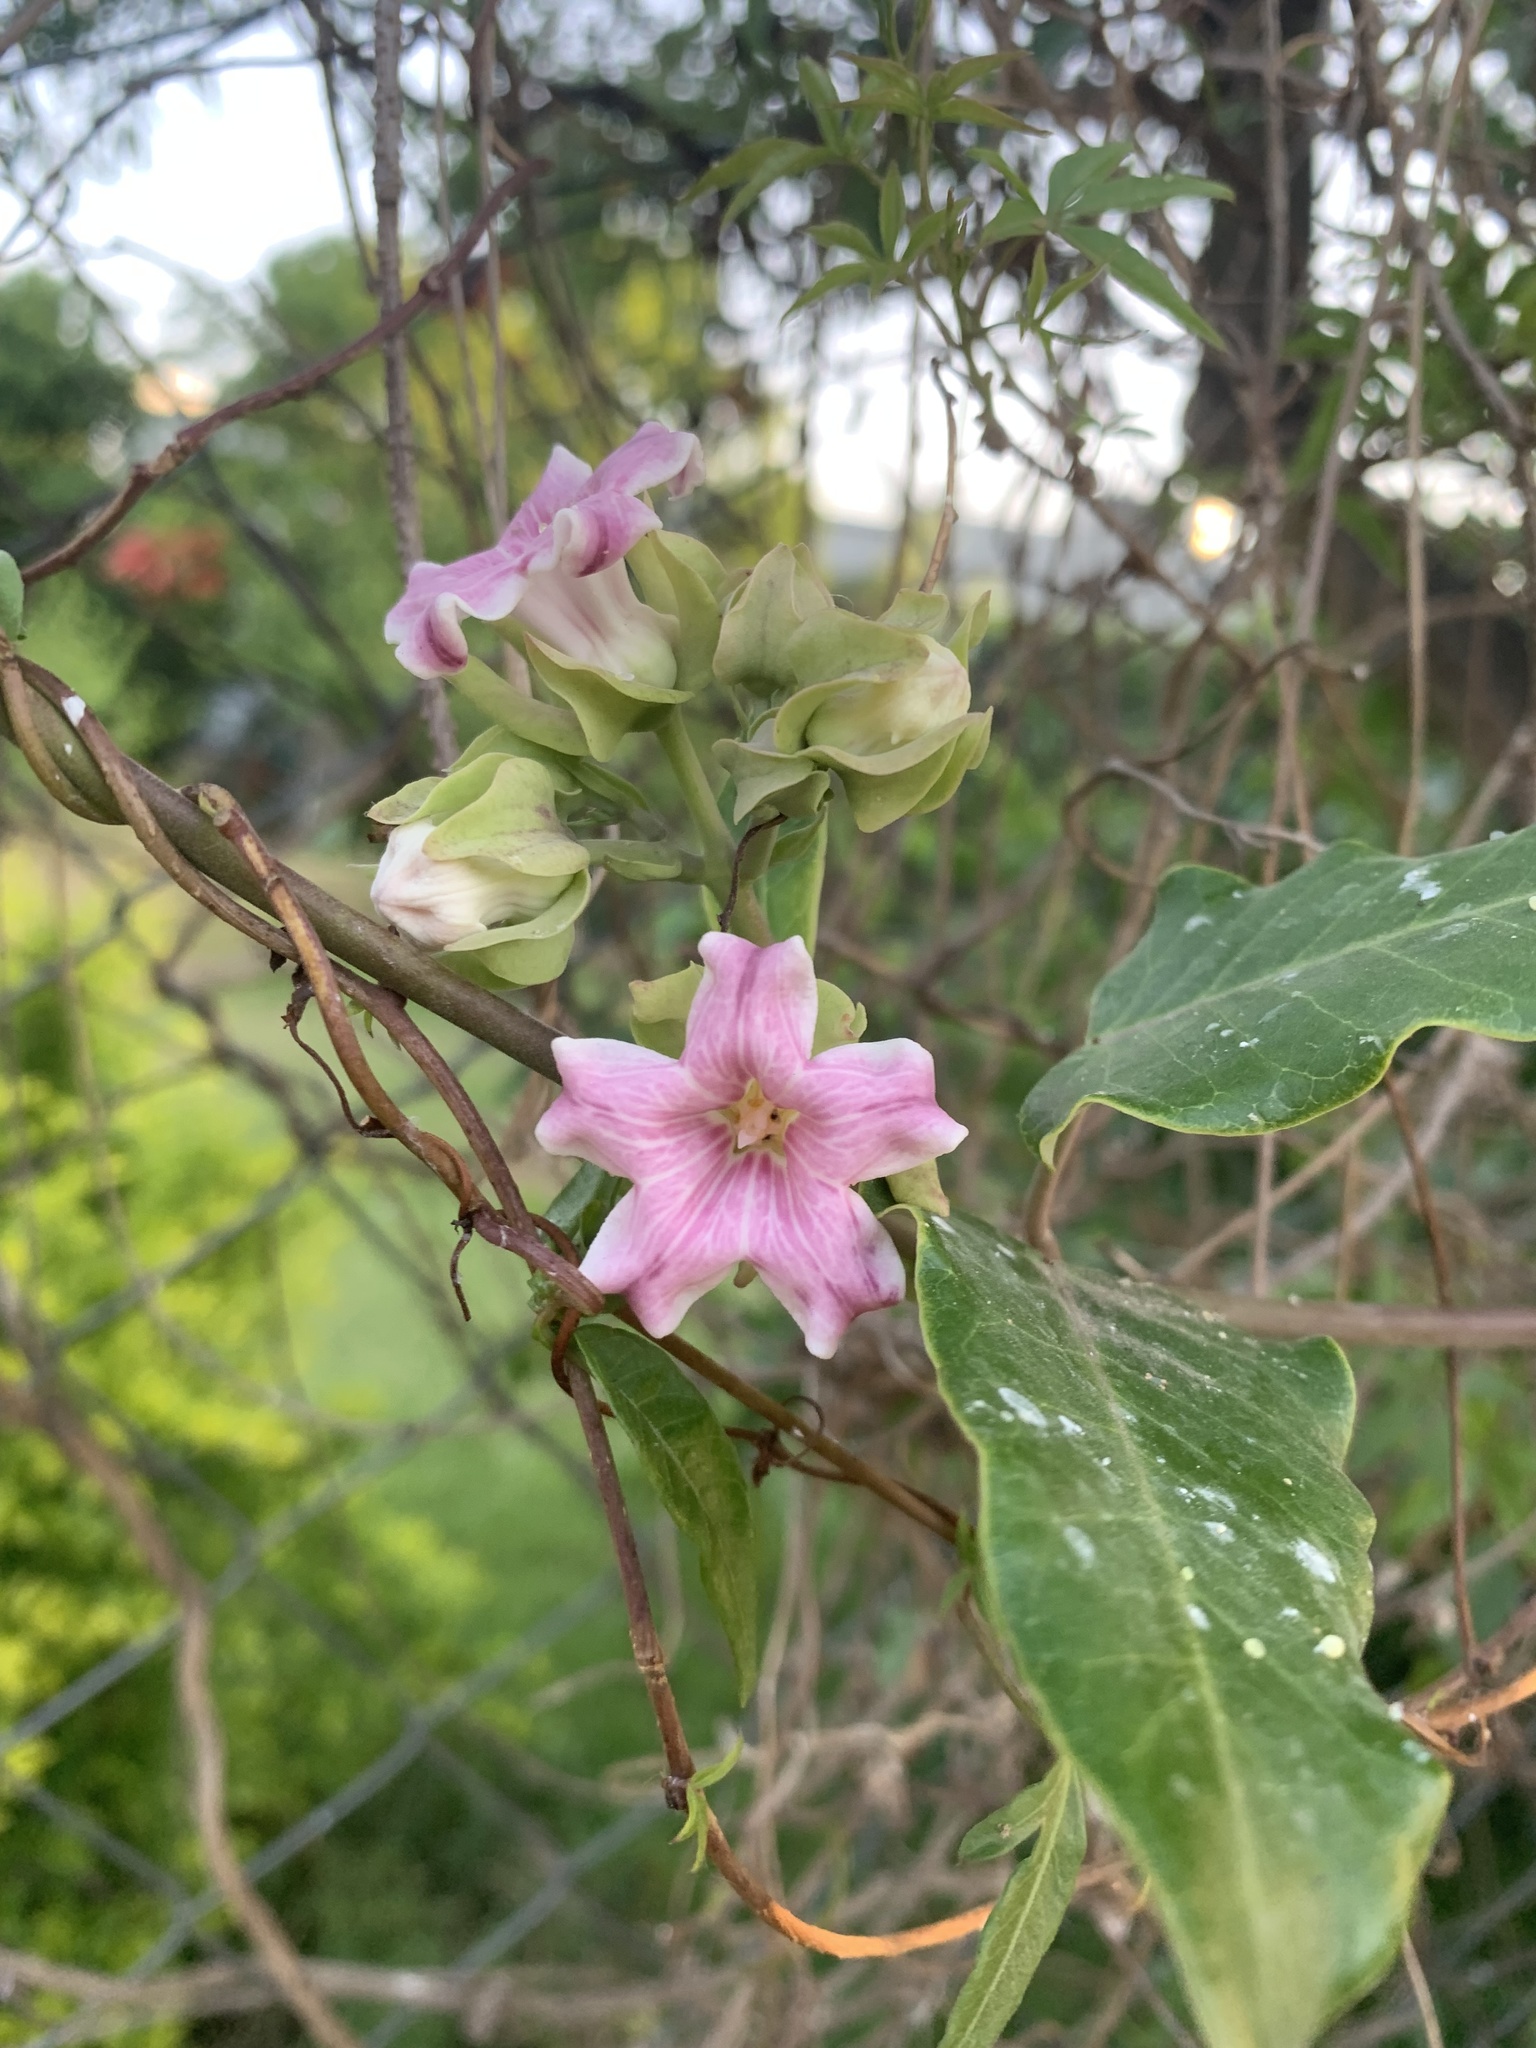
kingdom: Plantae
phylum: Tracheophyta
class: Magnoliopsida
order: Gentianales
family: Apocynaceae
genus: Araujia
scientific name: Araujia sericifera
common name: White bladderflower
